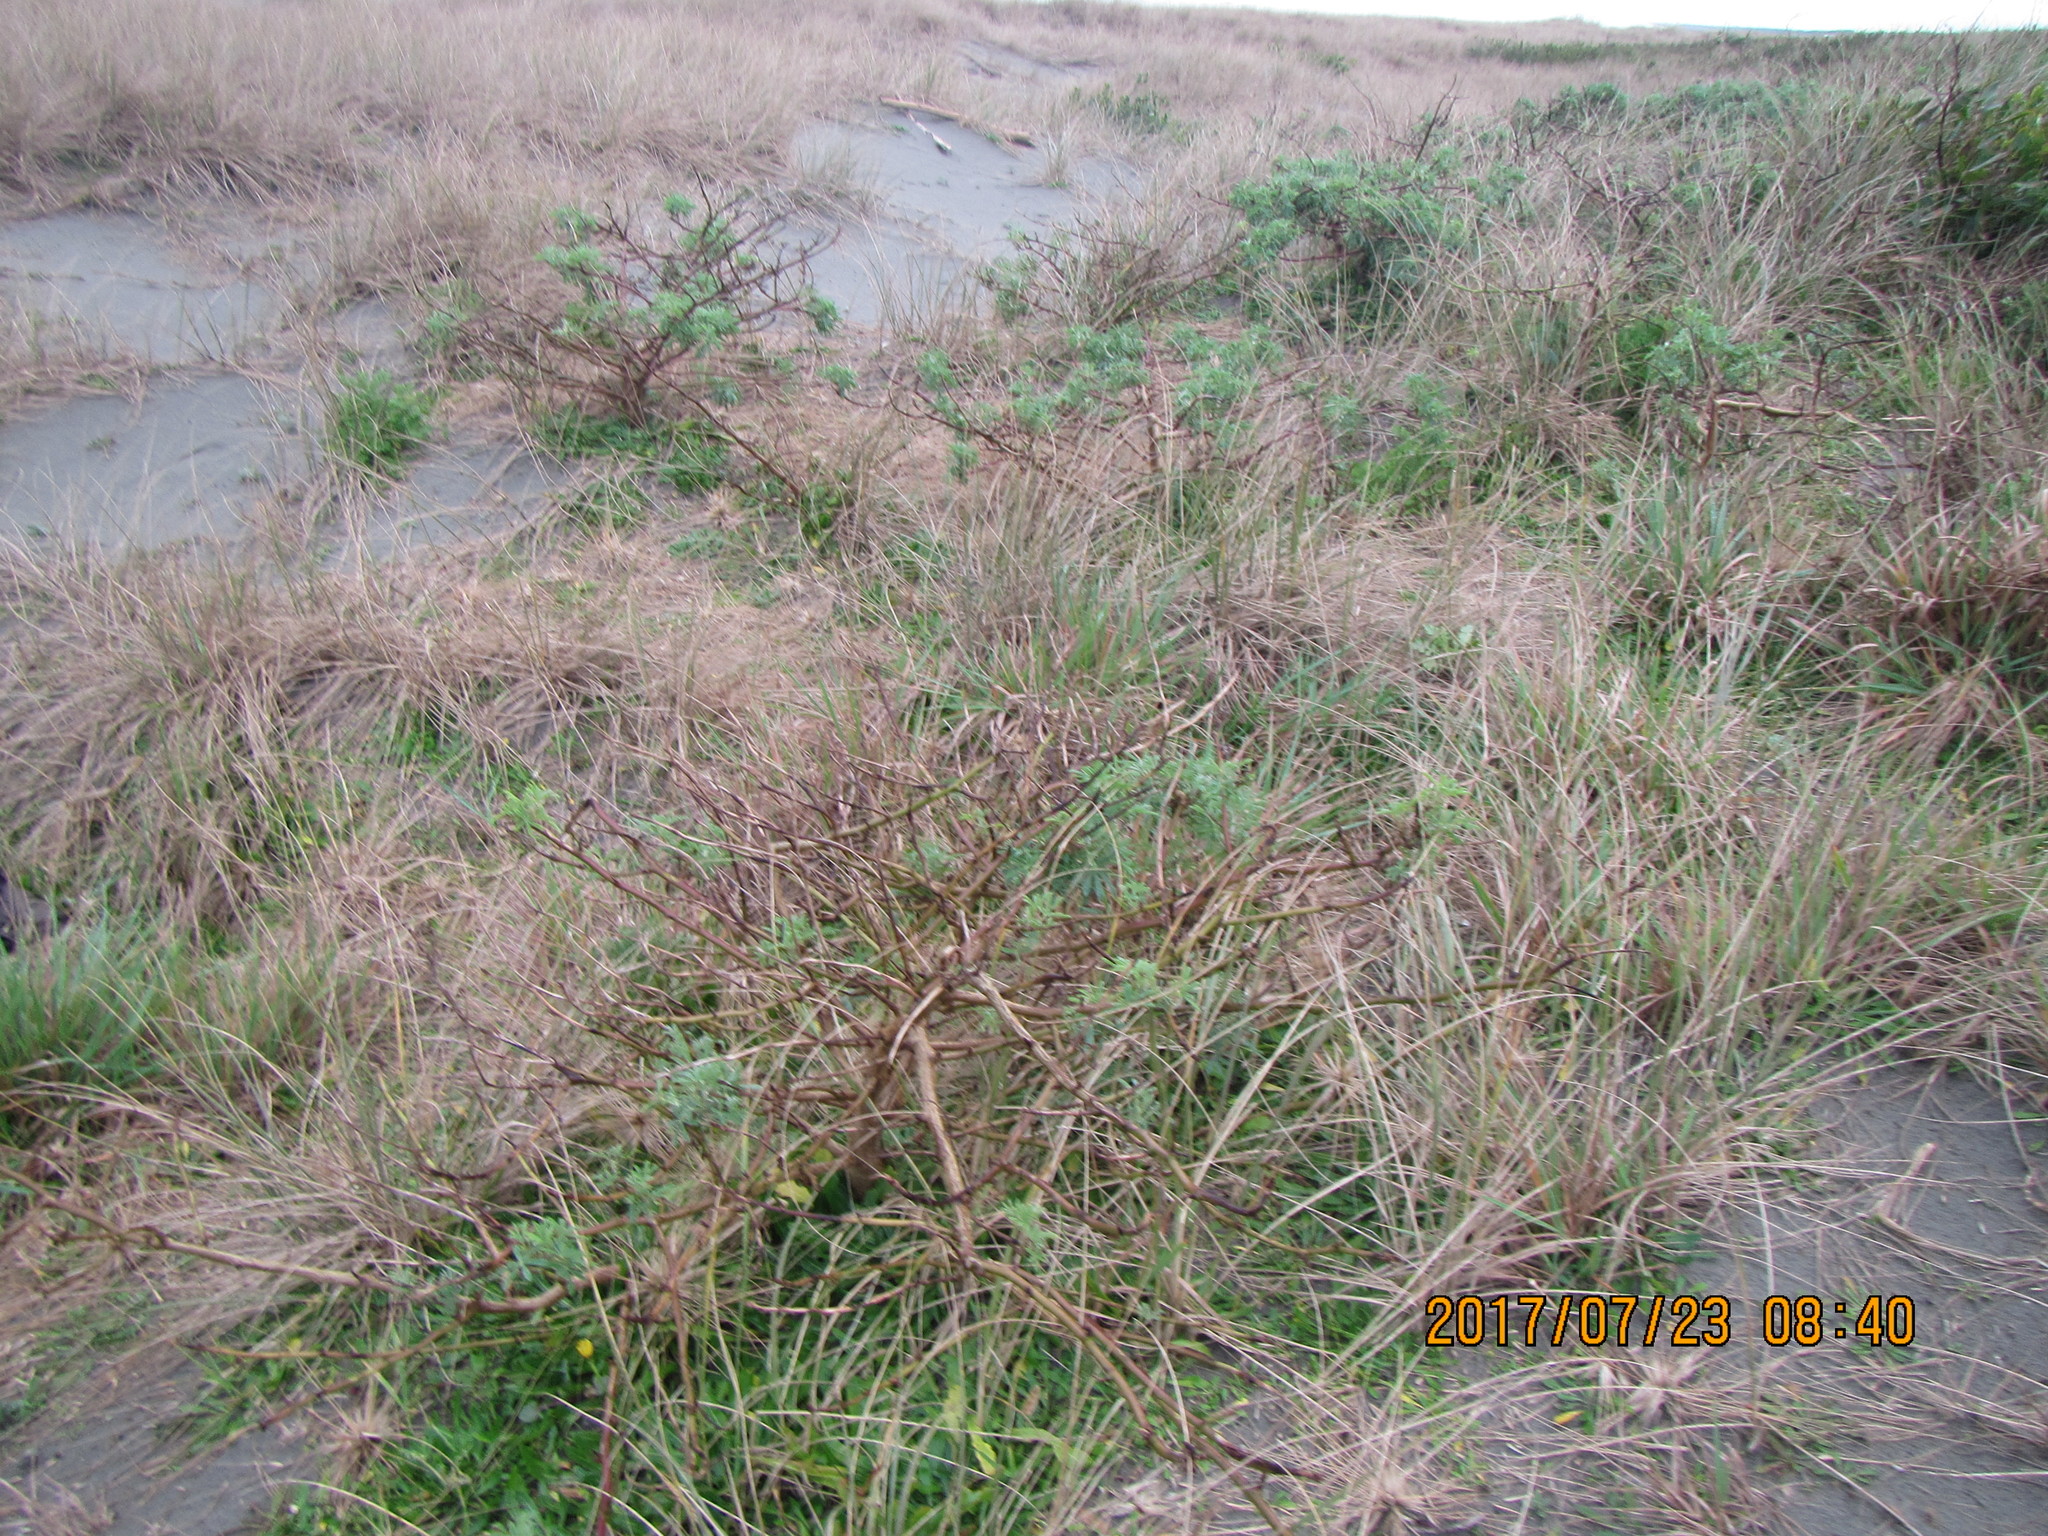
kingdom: Plantae
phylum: Tracheophyta
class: Magnoliopsida
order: Fabales
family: Fabaceae
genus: Lupinus
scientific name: Lupinus arboreus
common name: Yellow bush lupine
